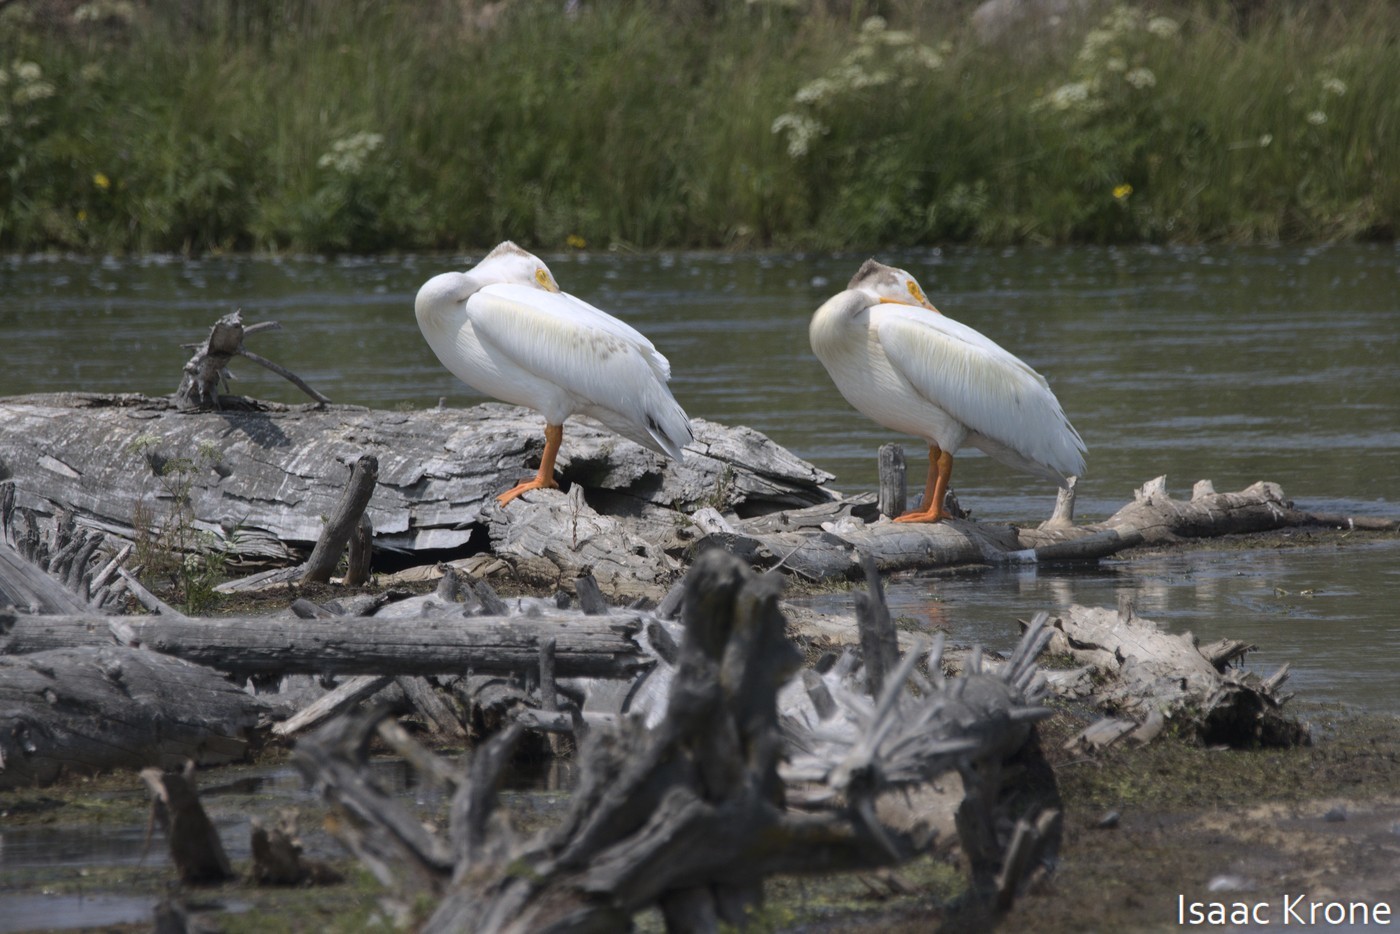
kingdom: Animalia
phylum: Chordata
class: Aves
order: Pelecaniformes
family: Pelecanidae
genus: Pelecanus
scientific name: Pelecanus erythrorhynchos
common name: American white pelican
